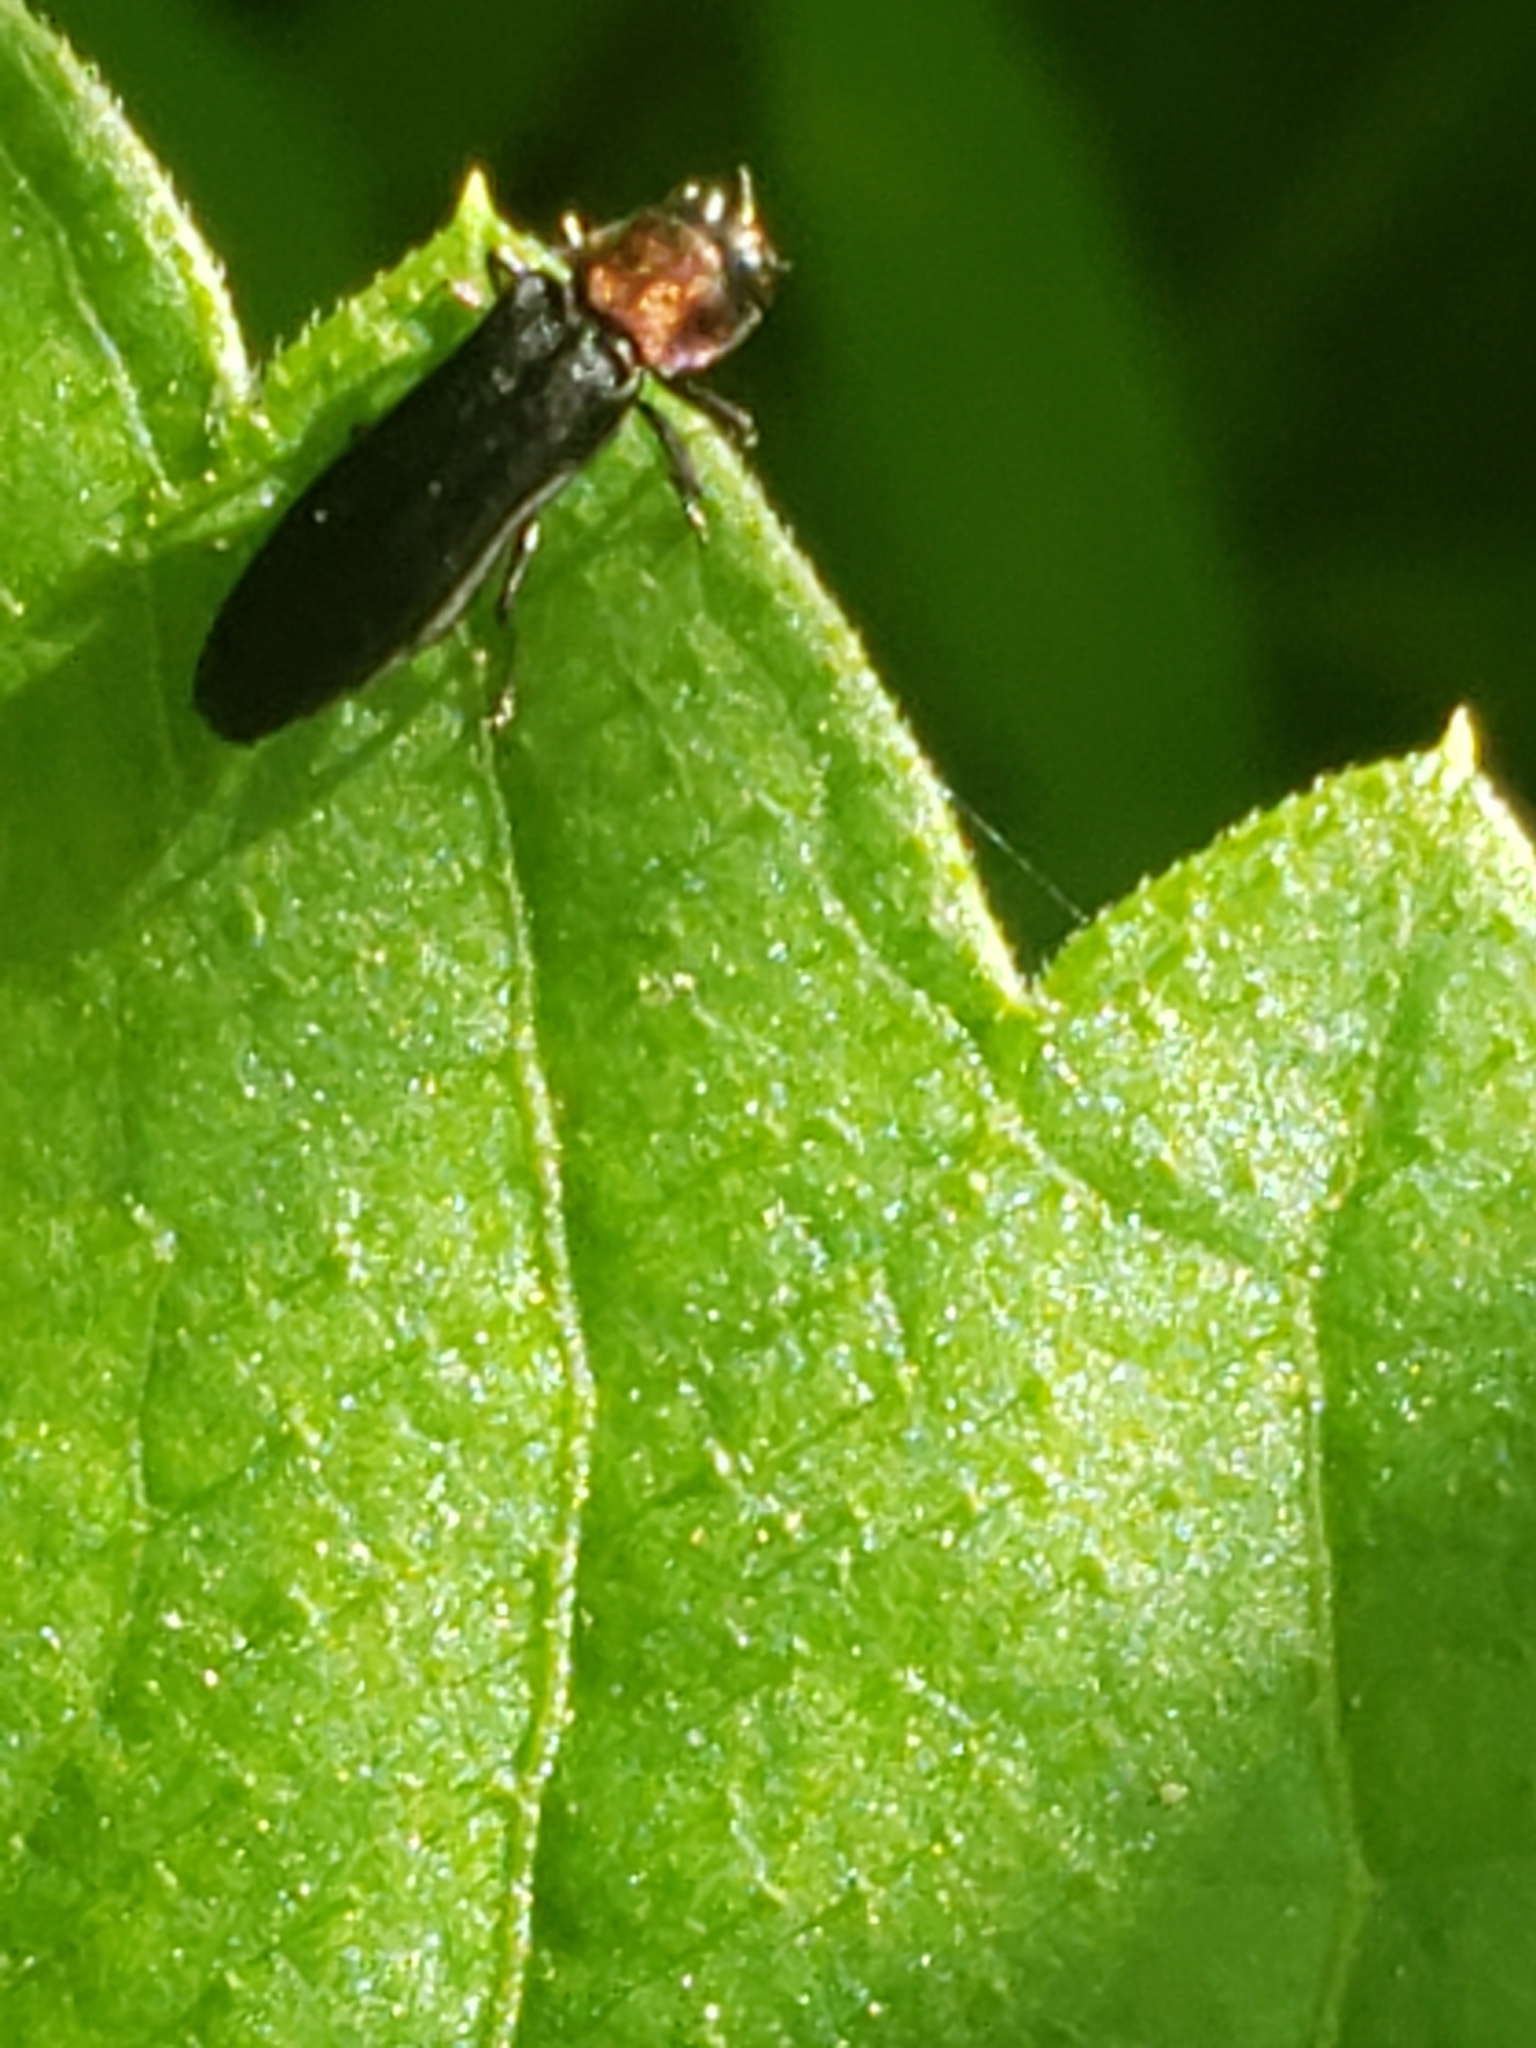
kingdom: Animalia
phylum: Arthropoda
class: Insecta
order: Coleoptera
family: Buprestidae
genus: Agrilus
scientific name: Agrilus ruficollis
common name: Red-necked cane borer beetle
